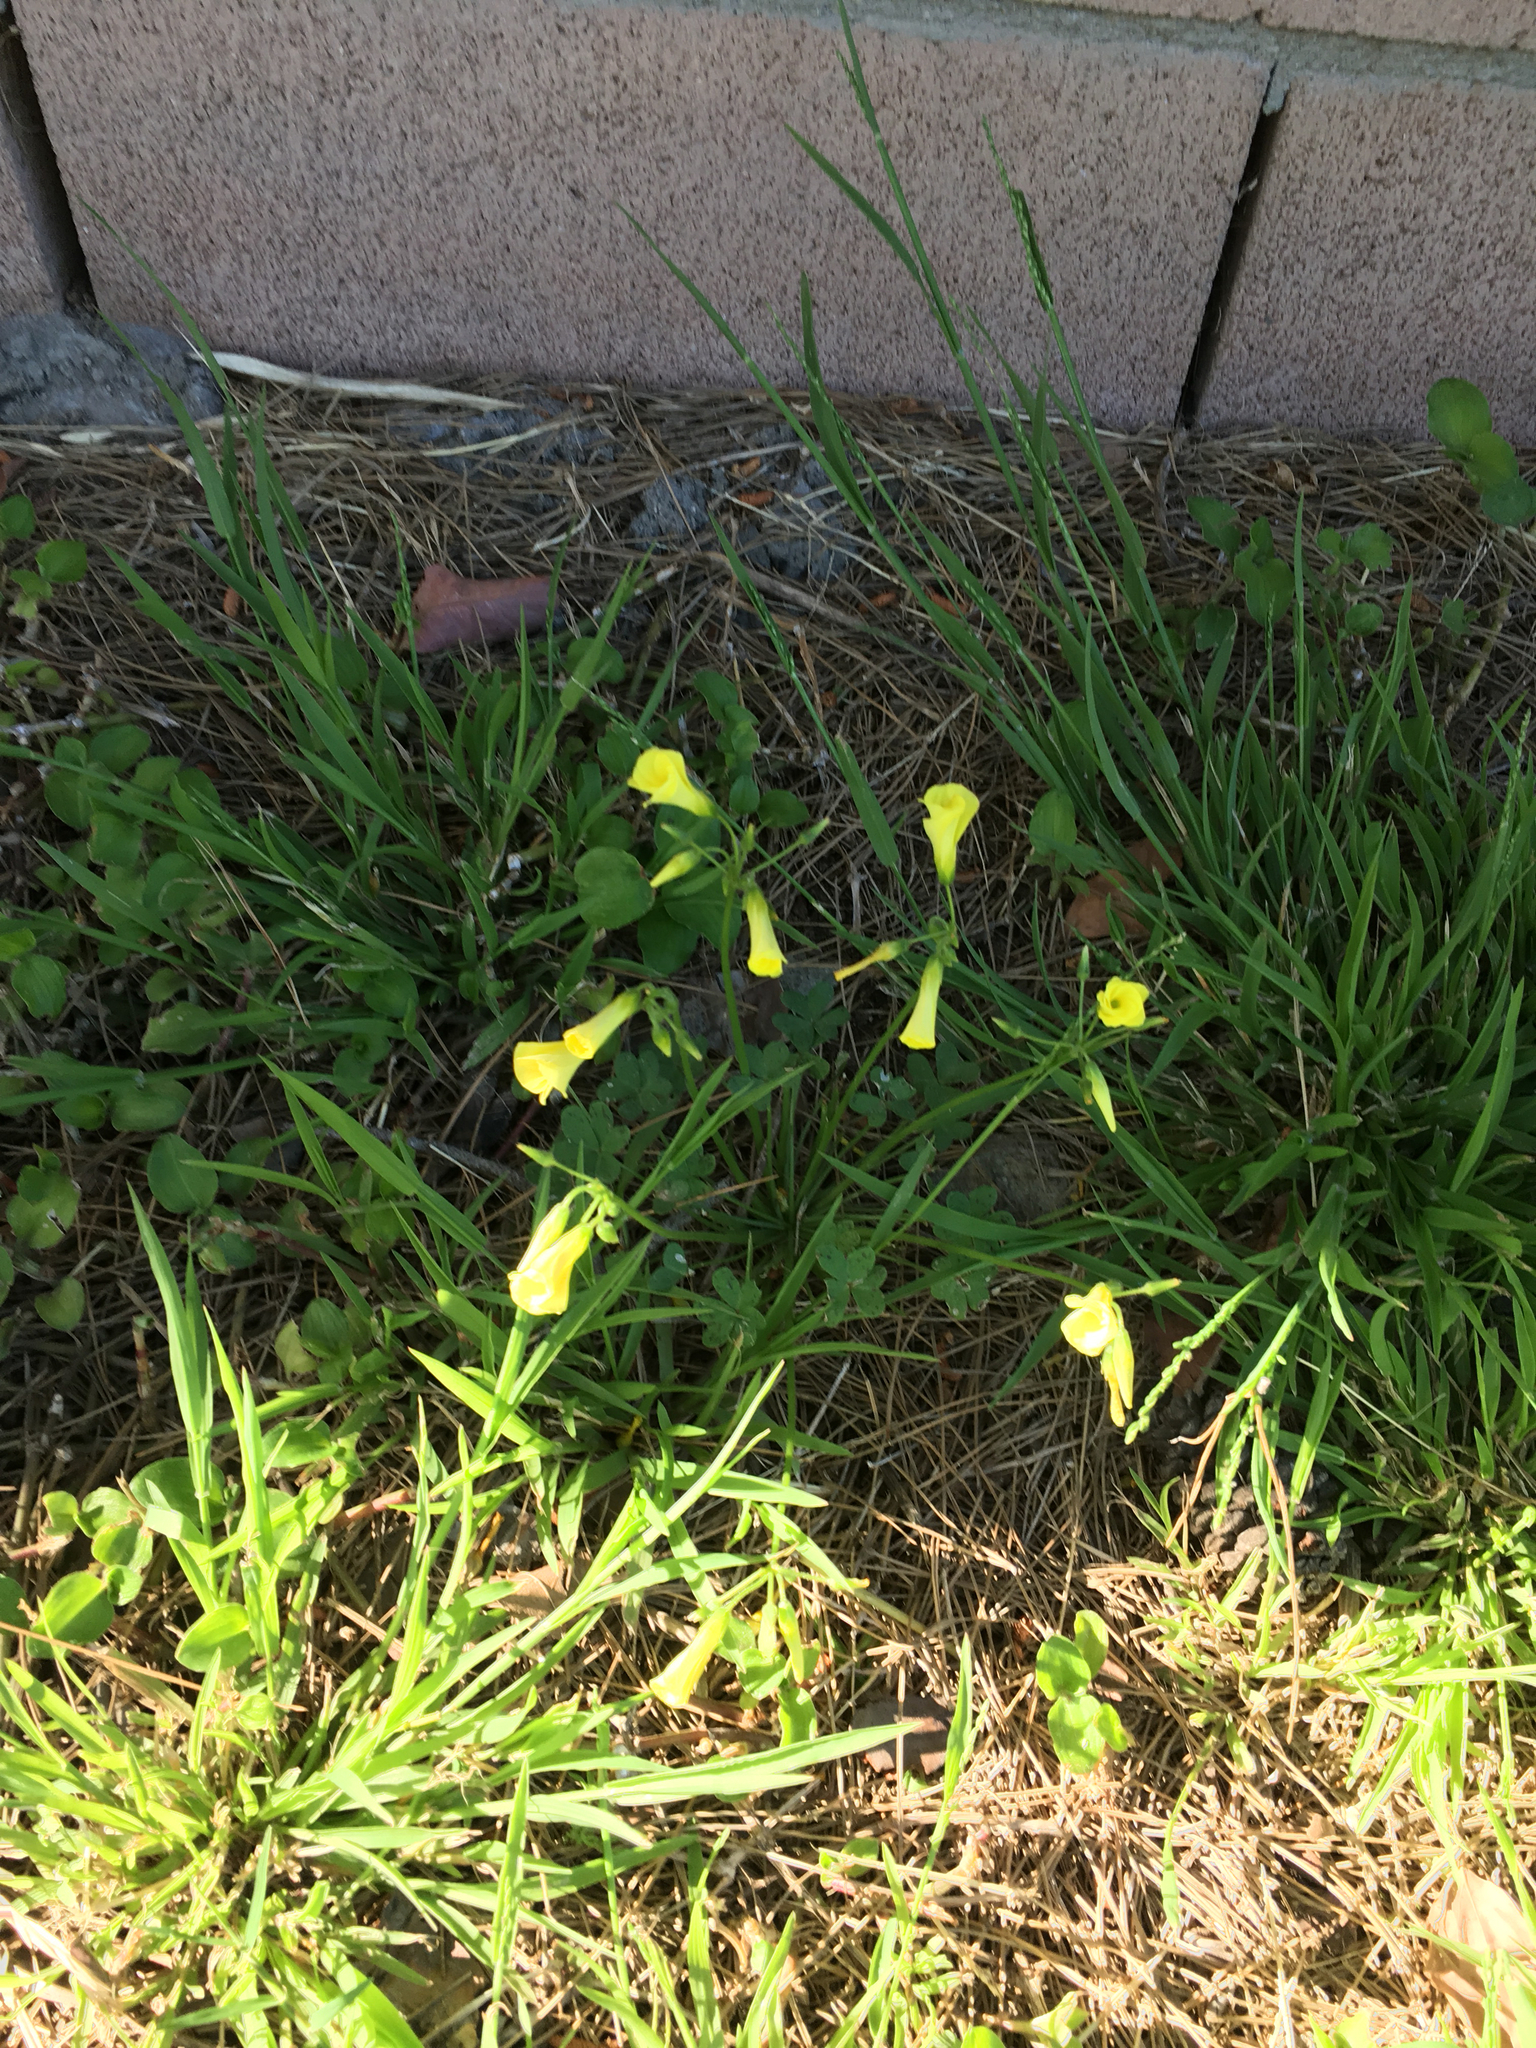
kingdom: Plantae
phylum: Tracheophyta
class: Magnoliopsida
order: Oxalidales
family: Oxalidaceae
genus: Oxalis
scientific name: Oxalis pes-caprae
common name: Bermuda-buttercup
